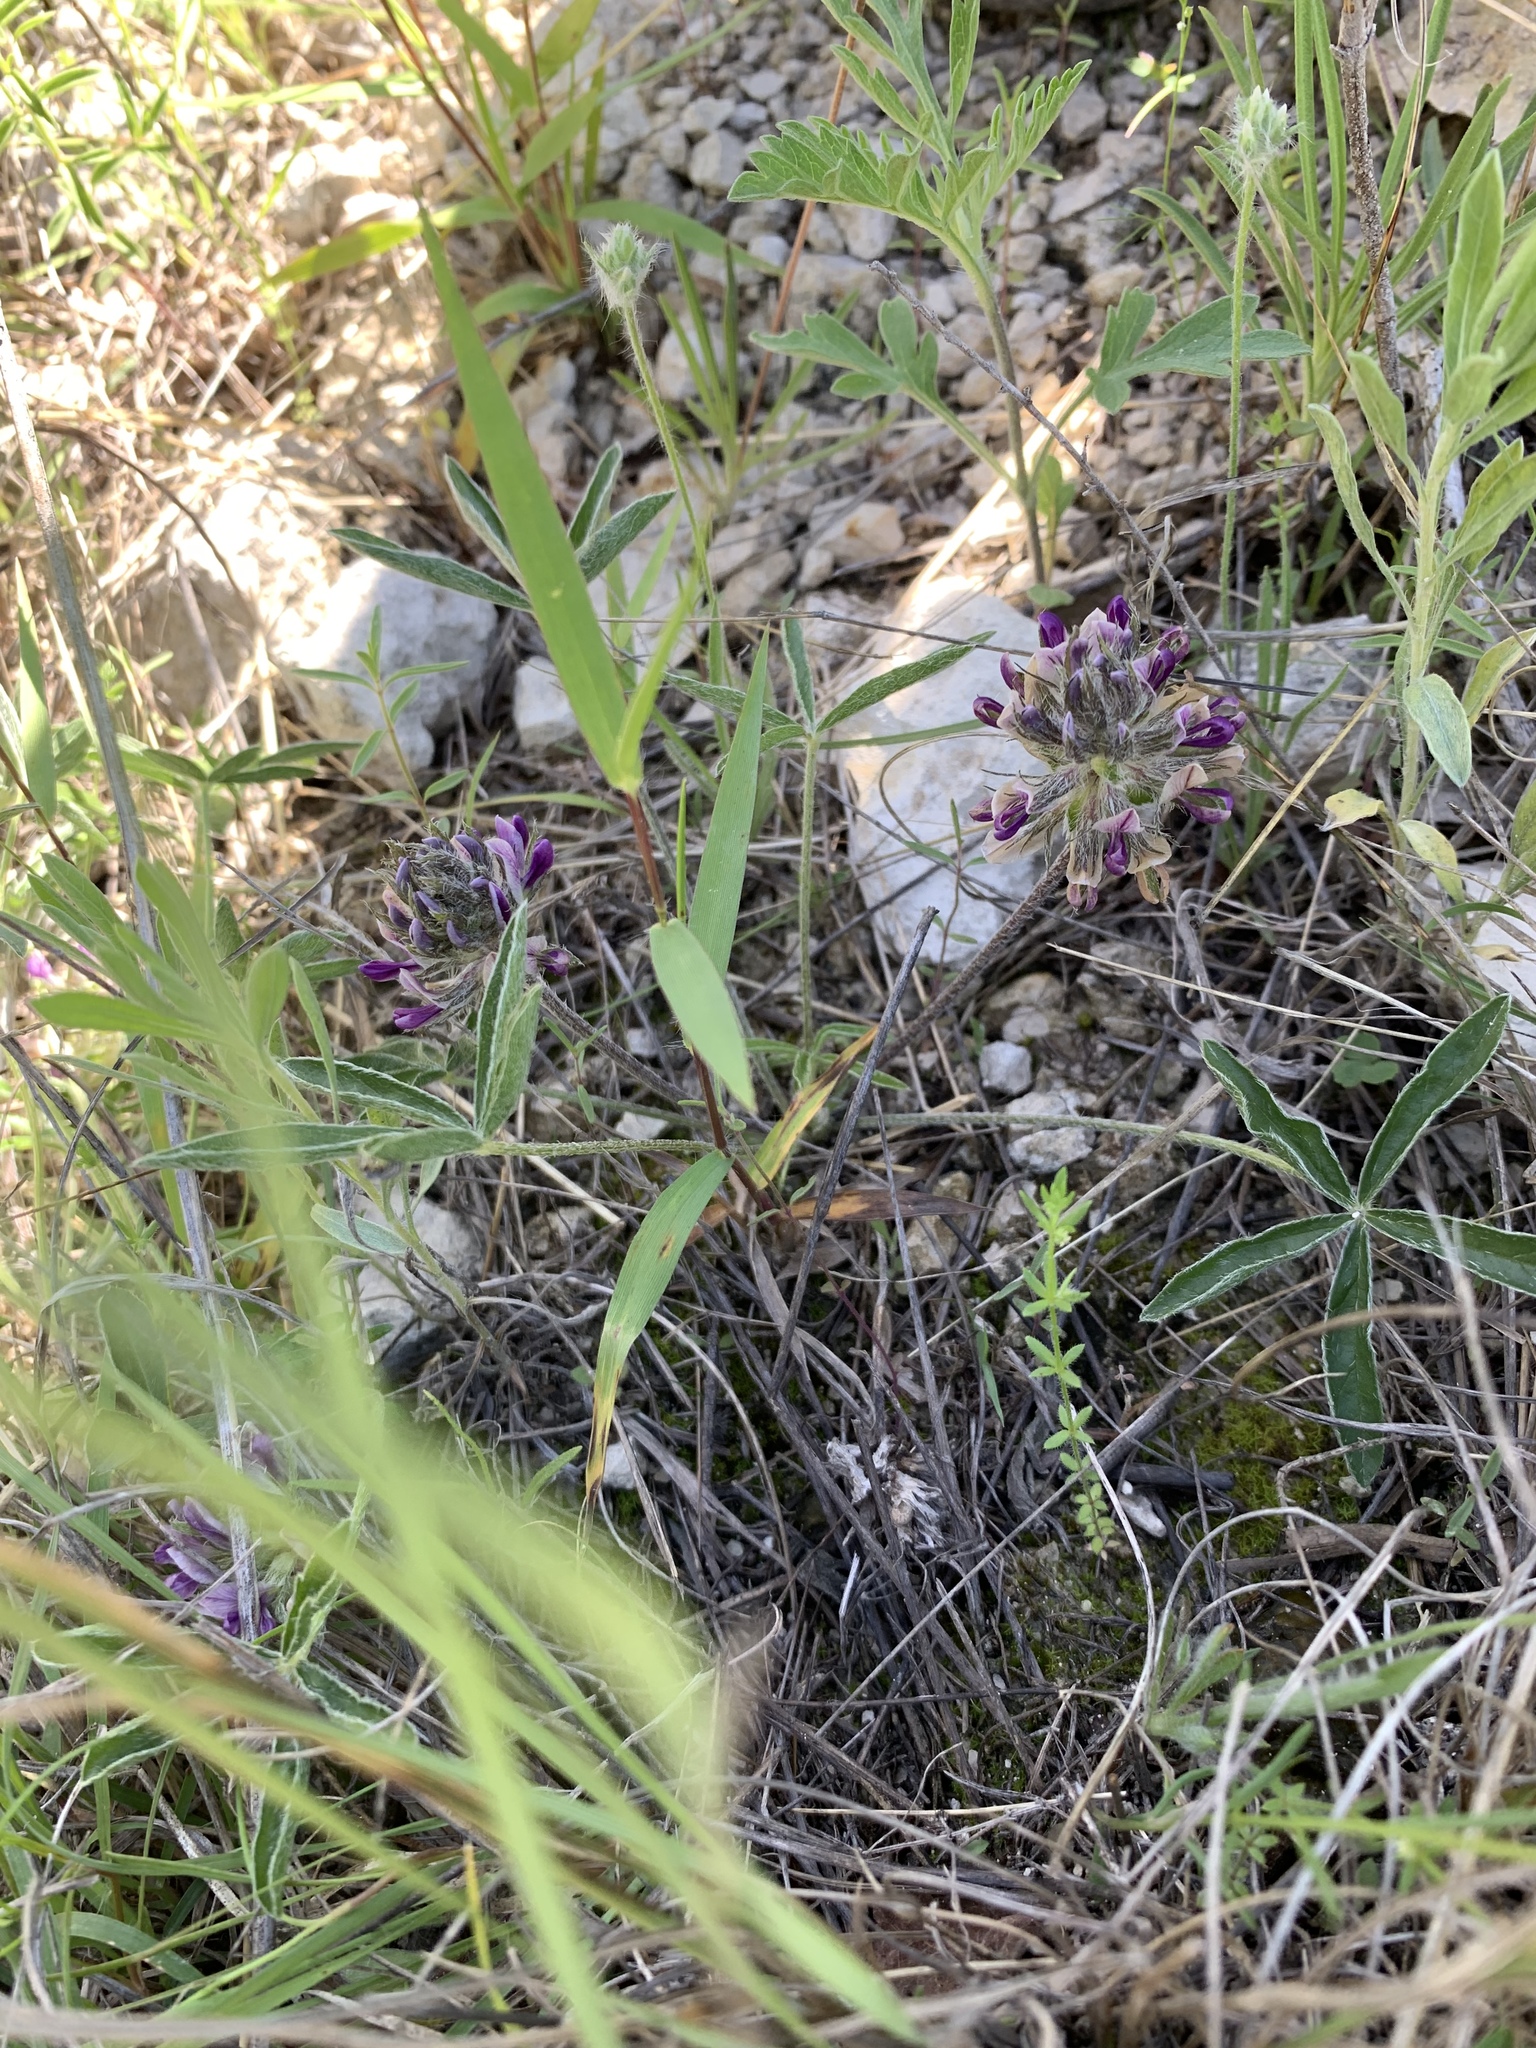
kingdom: Plantae
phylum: Tracheophyta
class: Magnoliopsida
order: Fabales
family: Fabaceae
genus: Pediomelum
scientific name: Pediomelum hypogaeum
